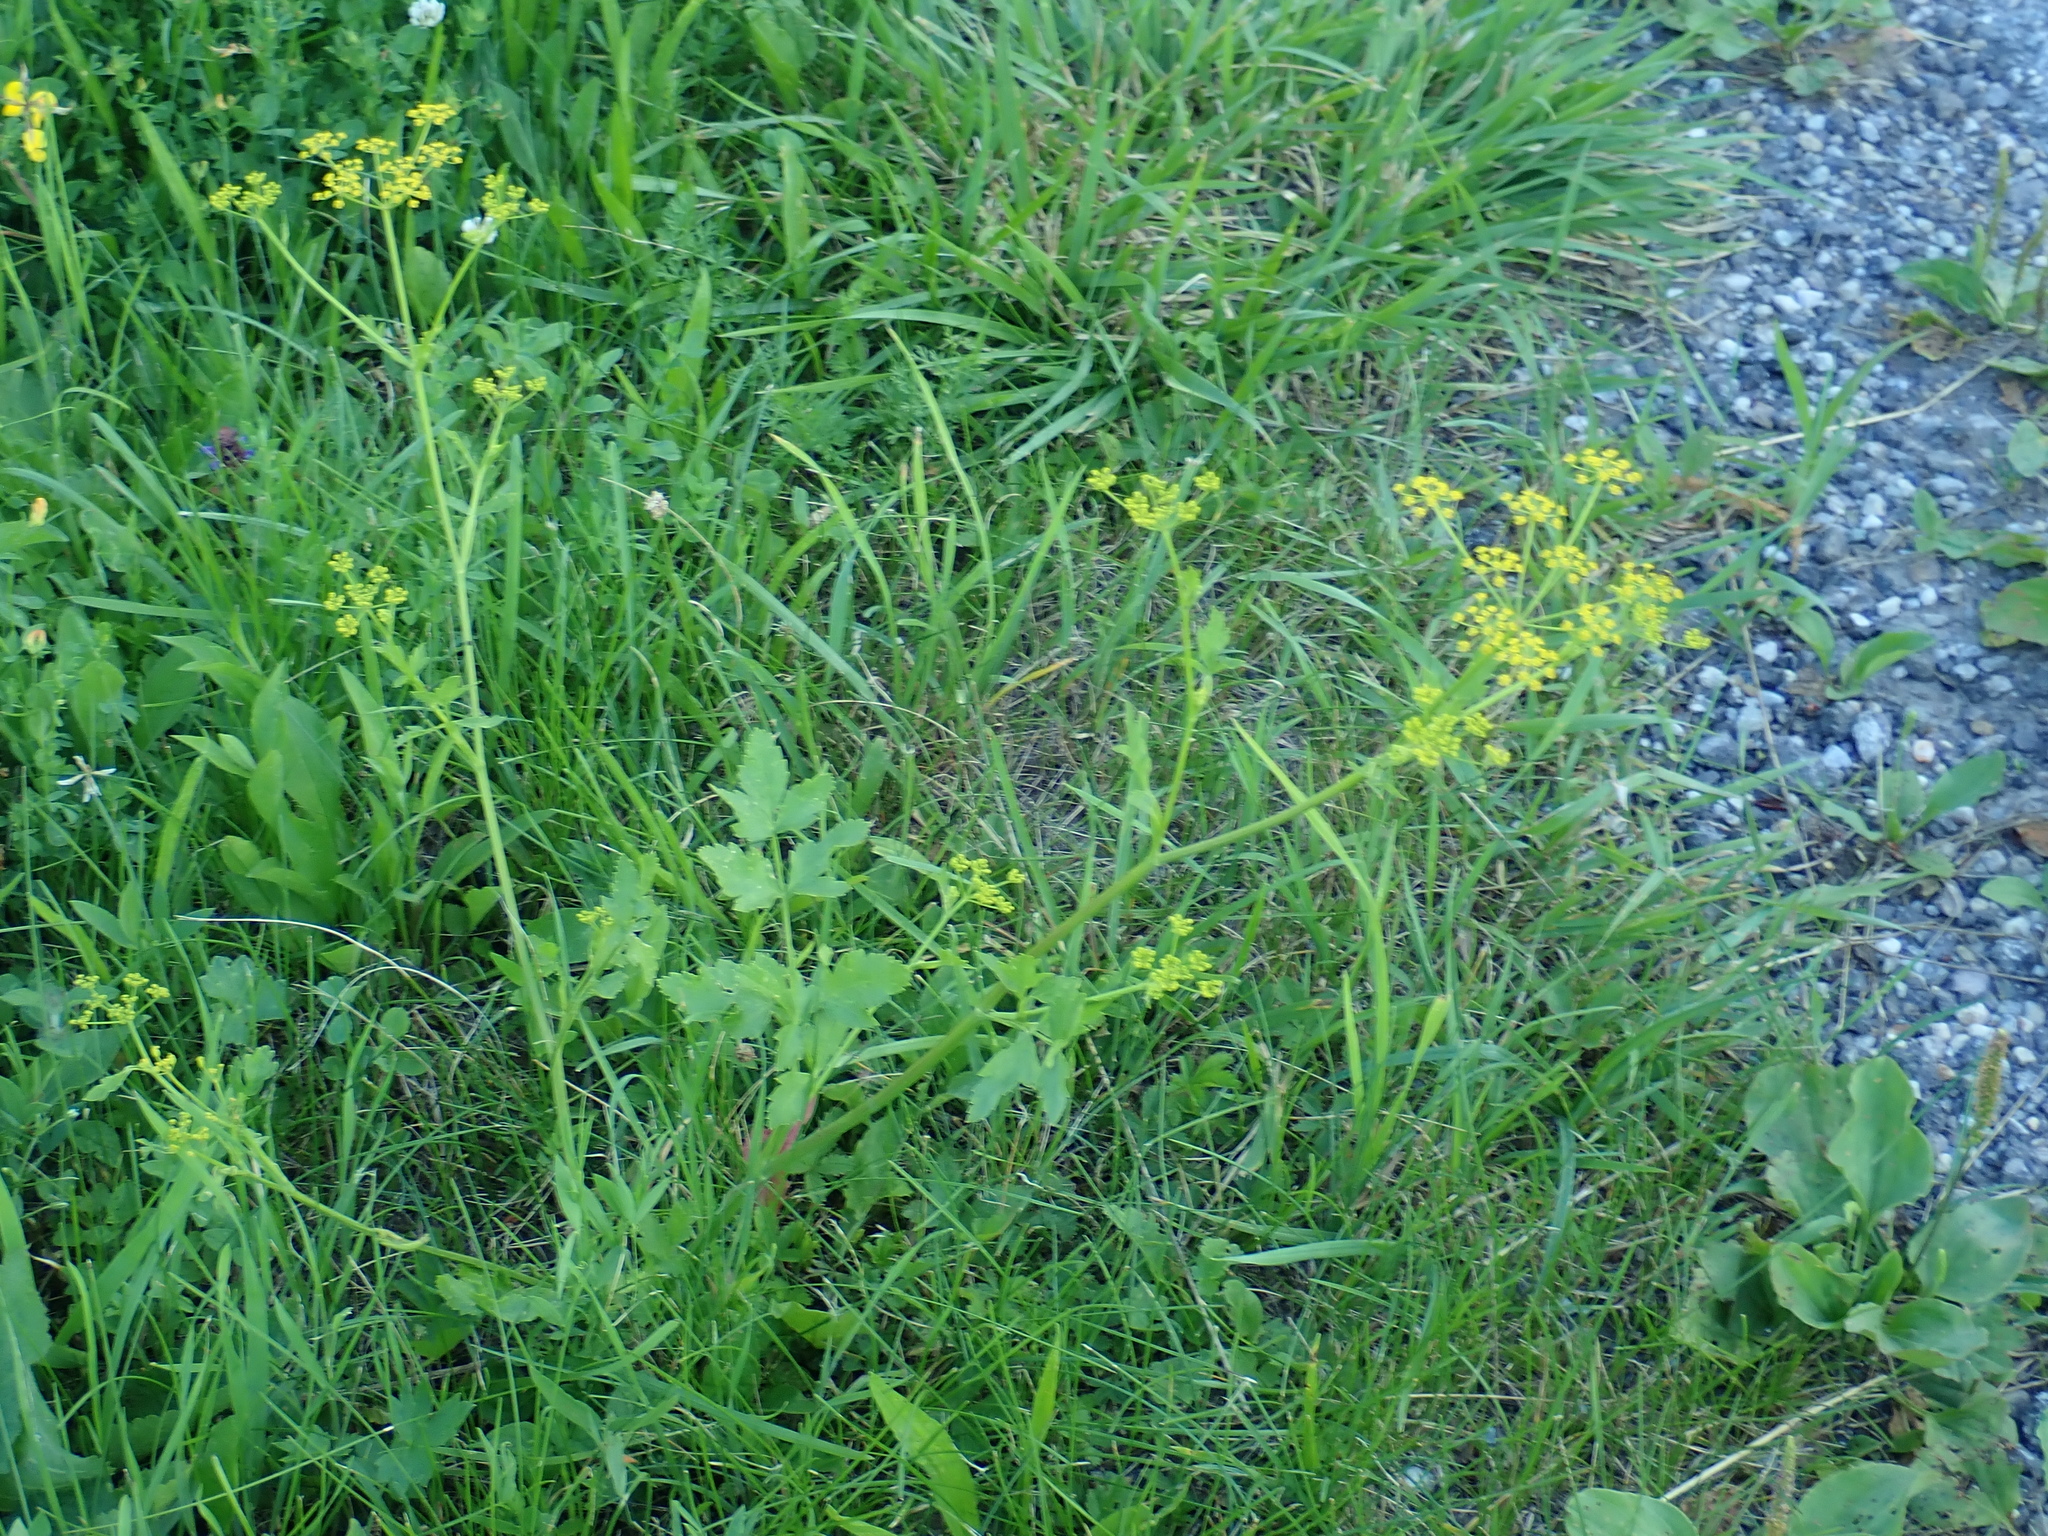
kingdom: Plantae
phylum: Tracheophyta
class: Magnoliopsida
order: Apiales
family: Apiaceae
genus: Pastinaca
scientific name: Pastinaca sativa
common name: Wild parsnip
